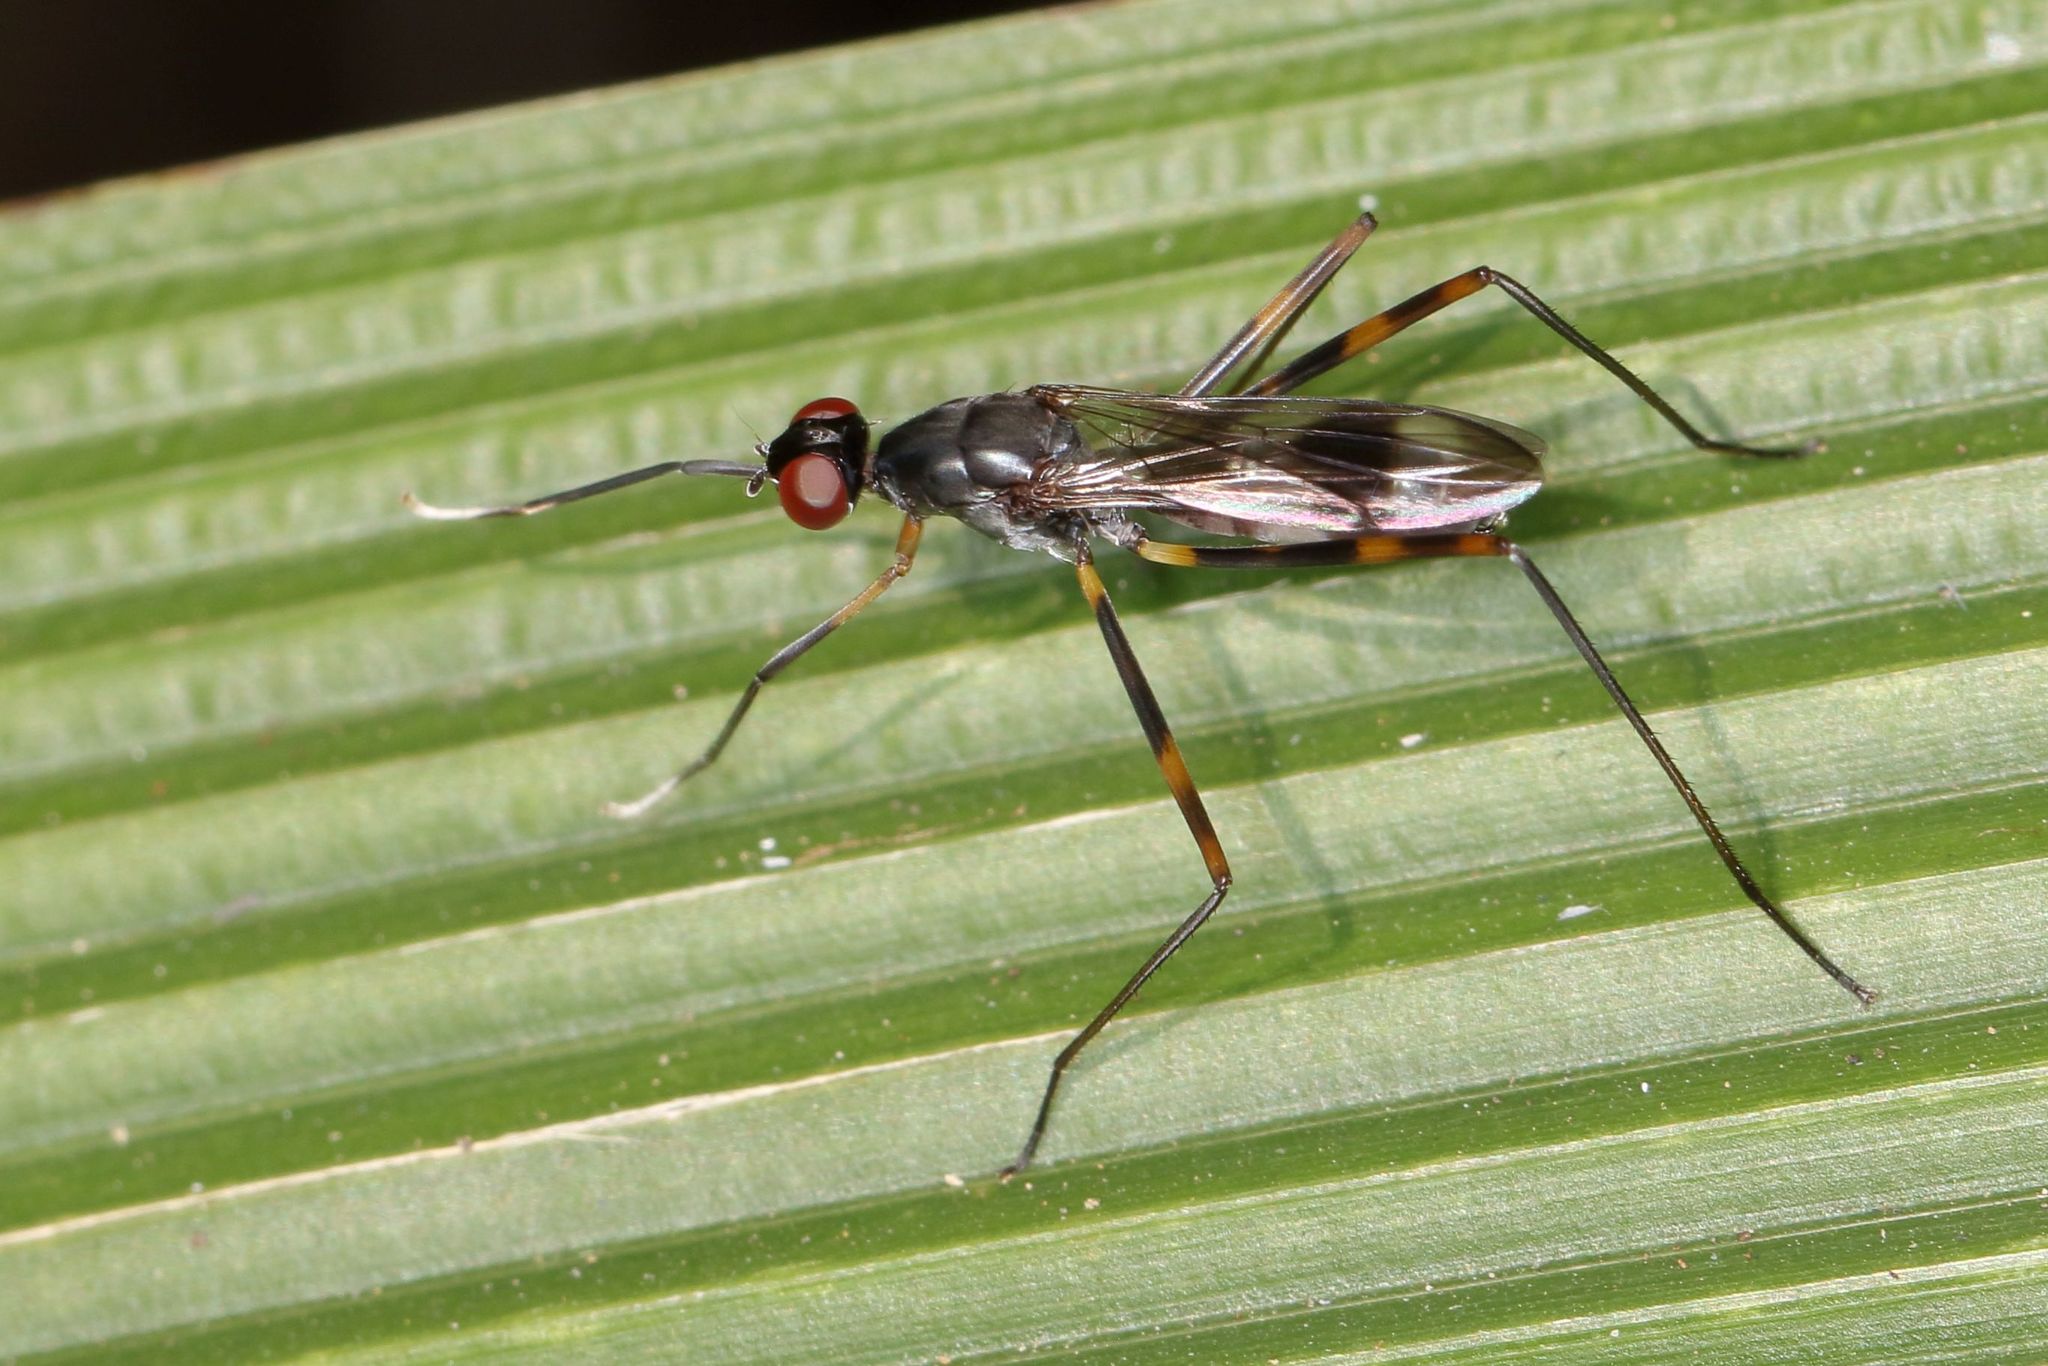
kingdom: Animalia
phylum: Arthropoda
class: Insecta
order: Diptera
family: Micropezidae
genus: Hybobata
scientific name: Hybobata
